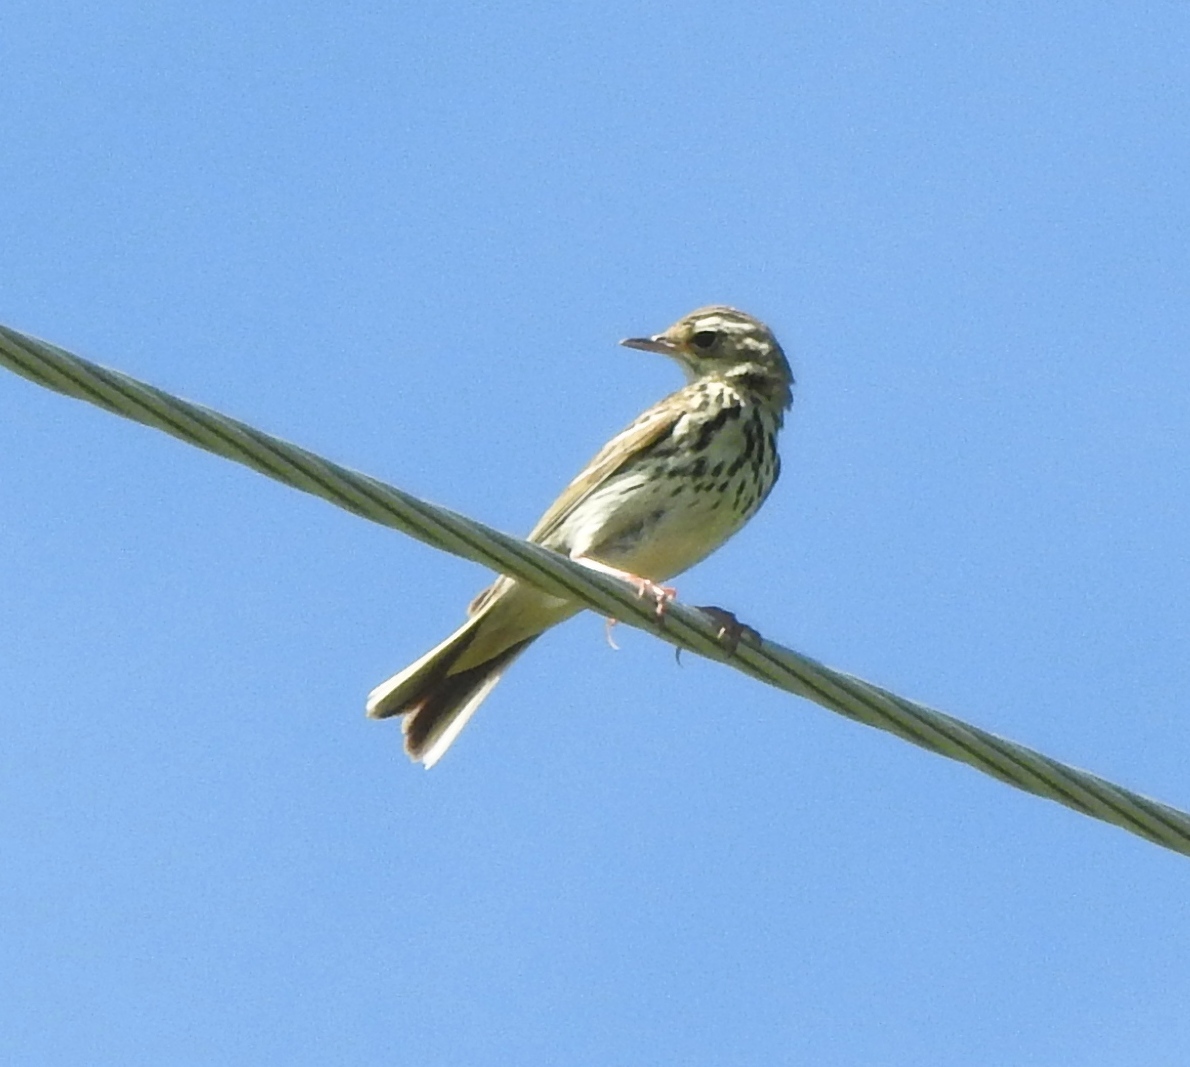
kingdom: Animalia
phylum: Chordata
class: Aves
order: Passeriformes
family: Motacillidae
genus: Anthus
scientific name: Anthus hodgsoni
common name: Olive-backed pipit
